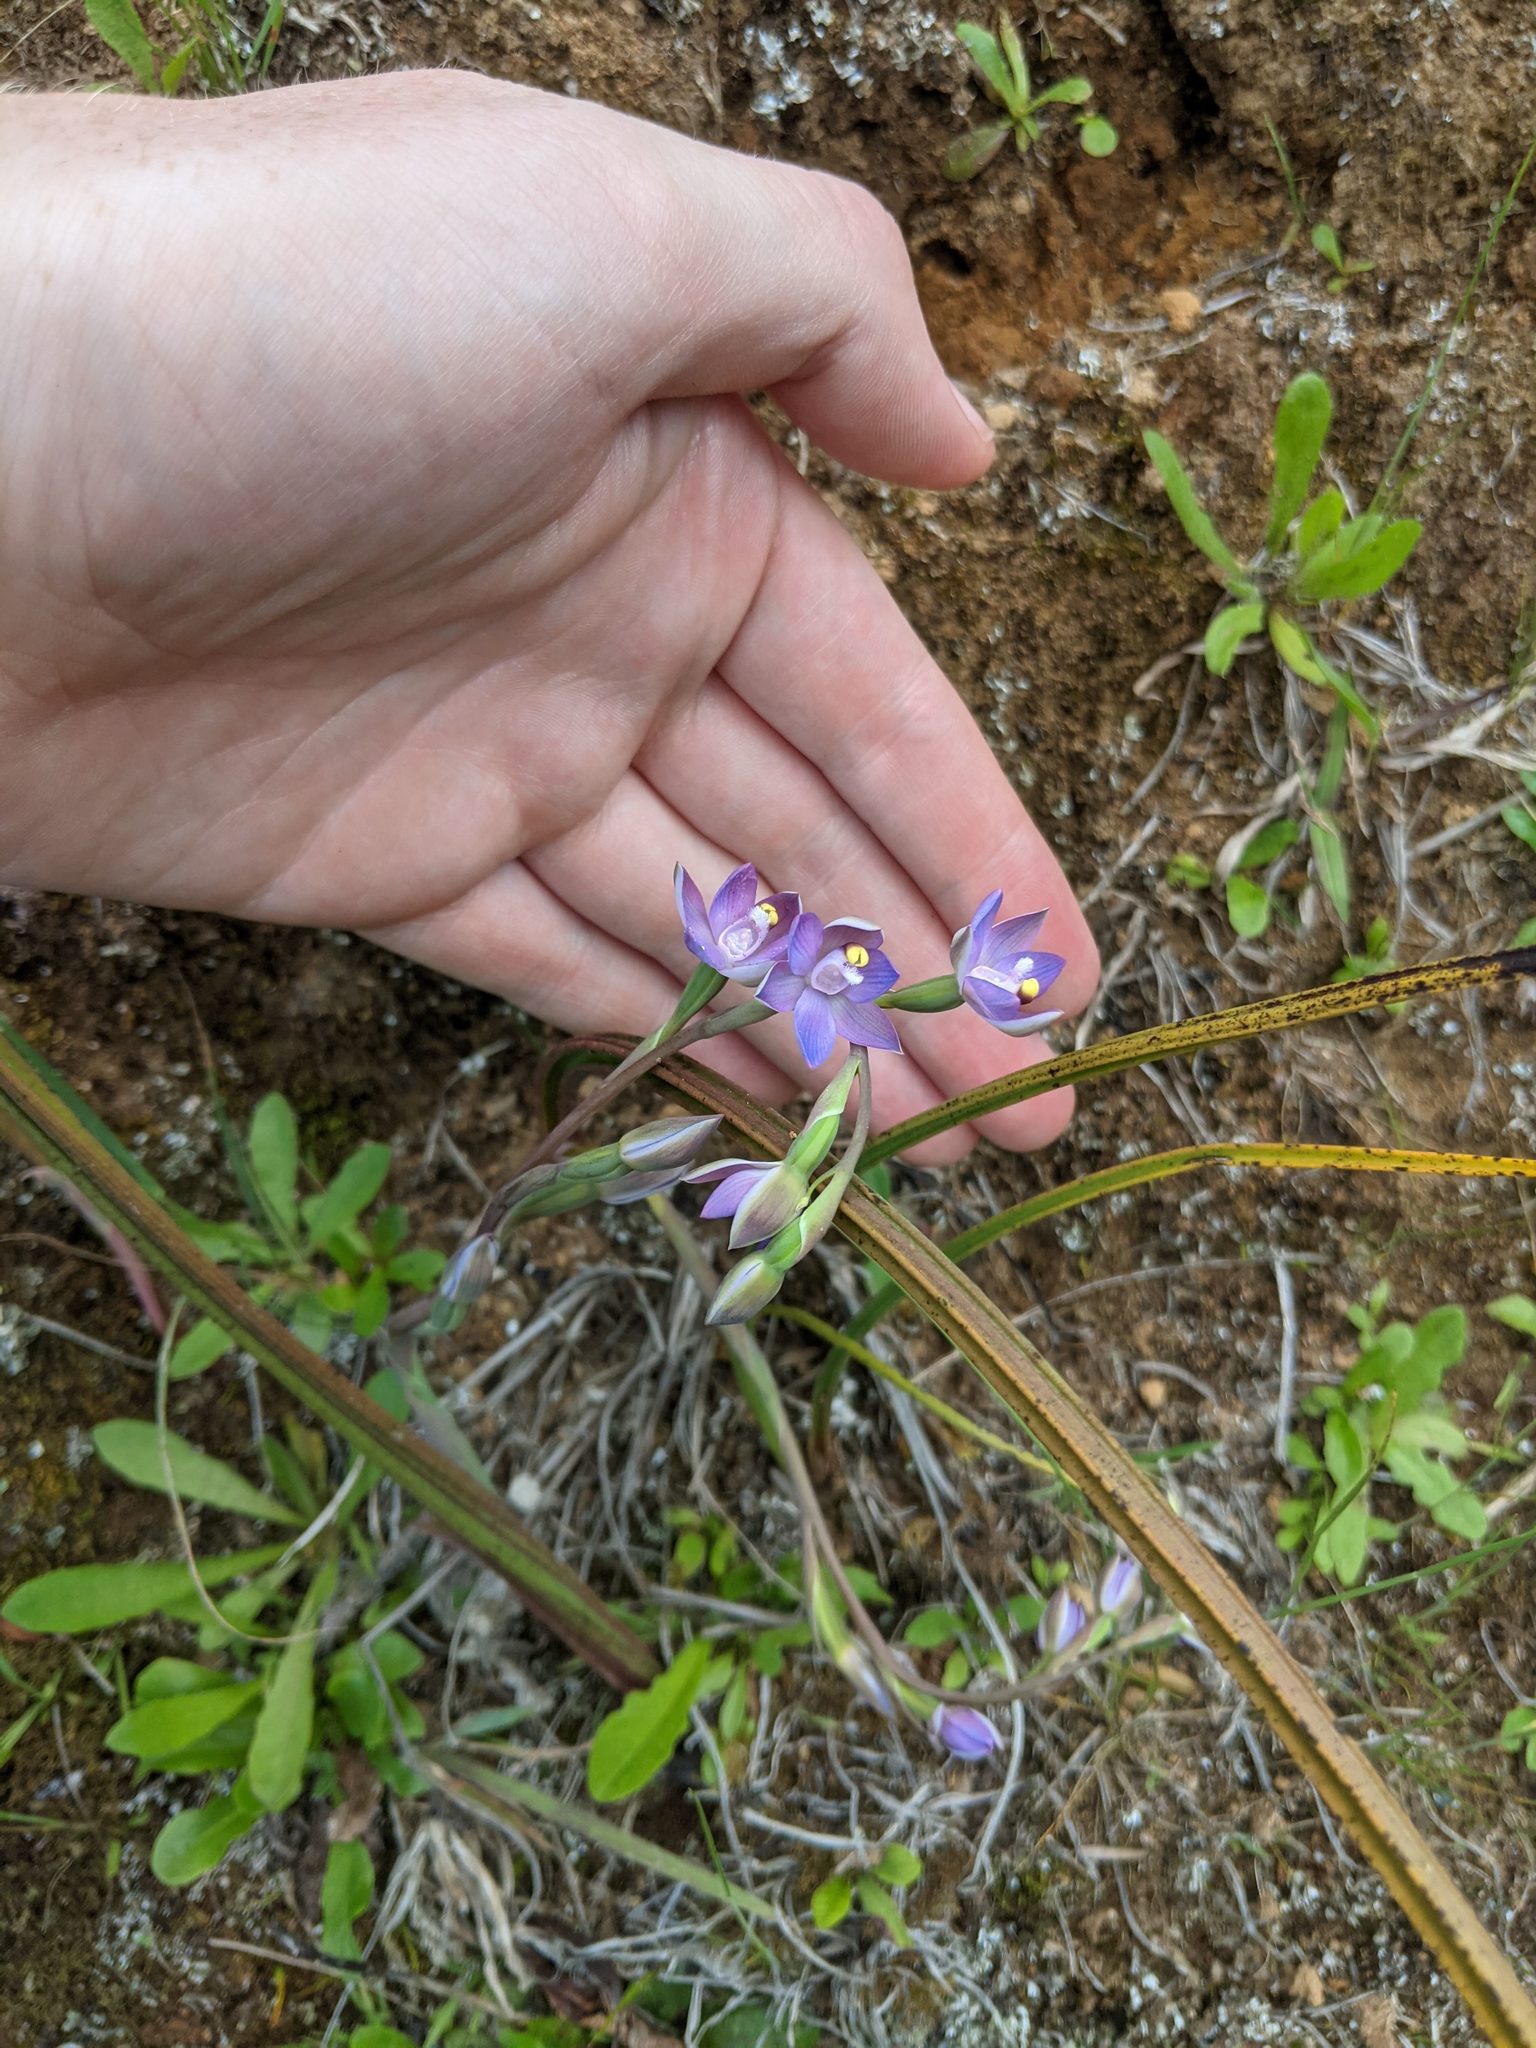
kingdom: Plantae
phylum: Tracheophyta
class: Liliopsida
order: Asparagales
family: Orchidaceae
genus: Thelymitra
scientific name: Thelymitra pauciflora
